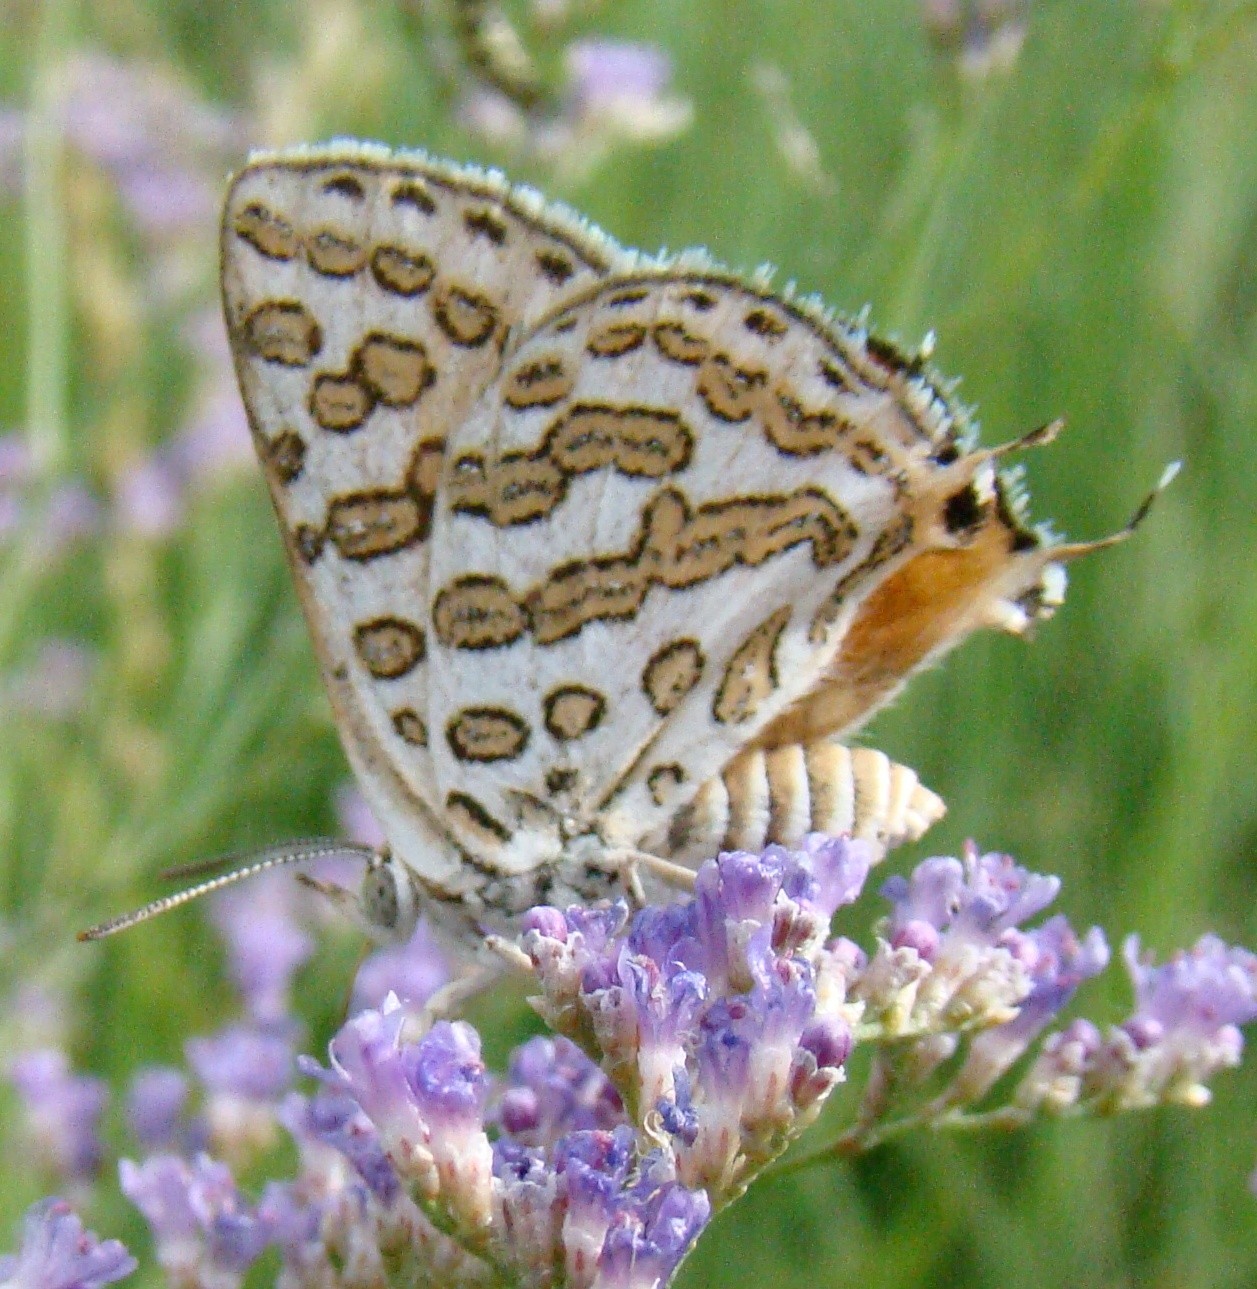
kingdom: Animalia
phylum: Arthropoda
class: Insecta
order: Lepidoptera
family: Lycaenidae
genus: Cigaritis
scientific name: Cigaritis epargyros
